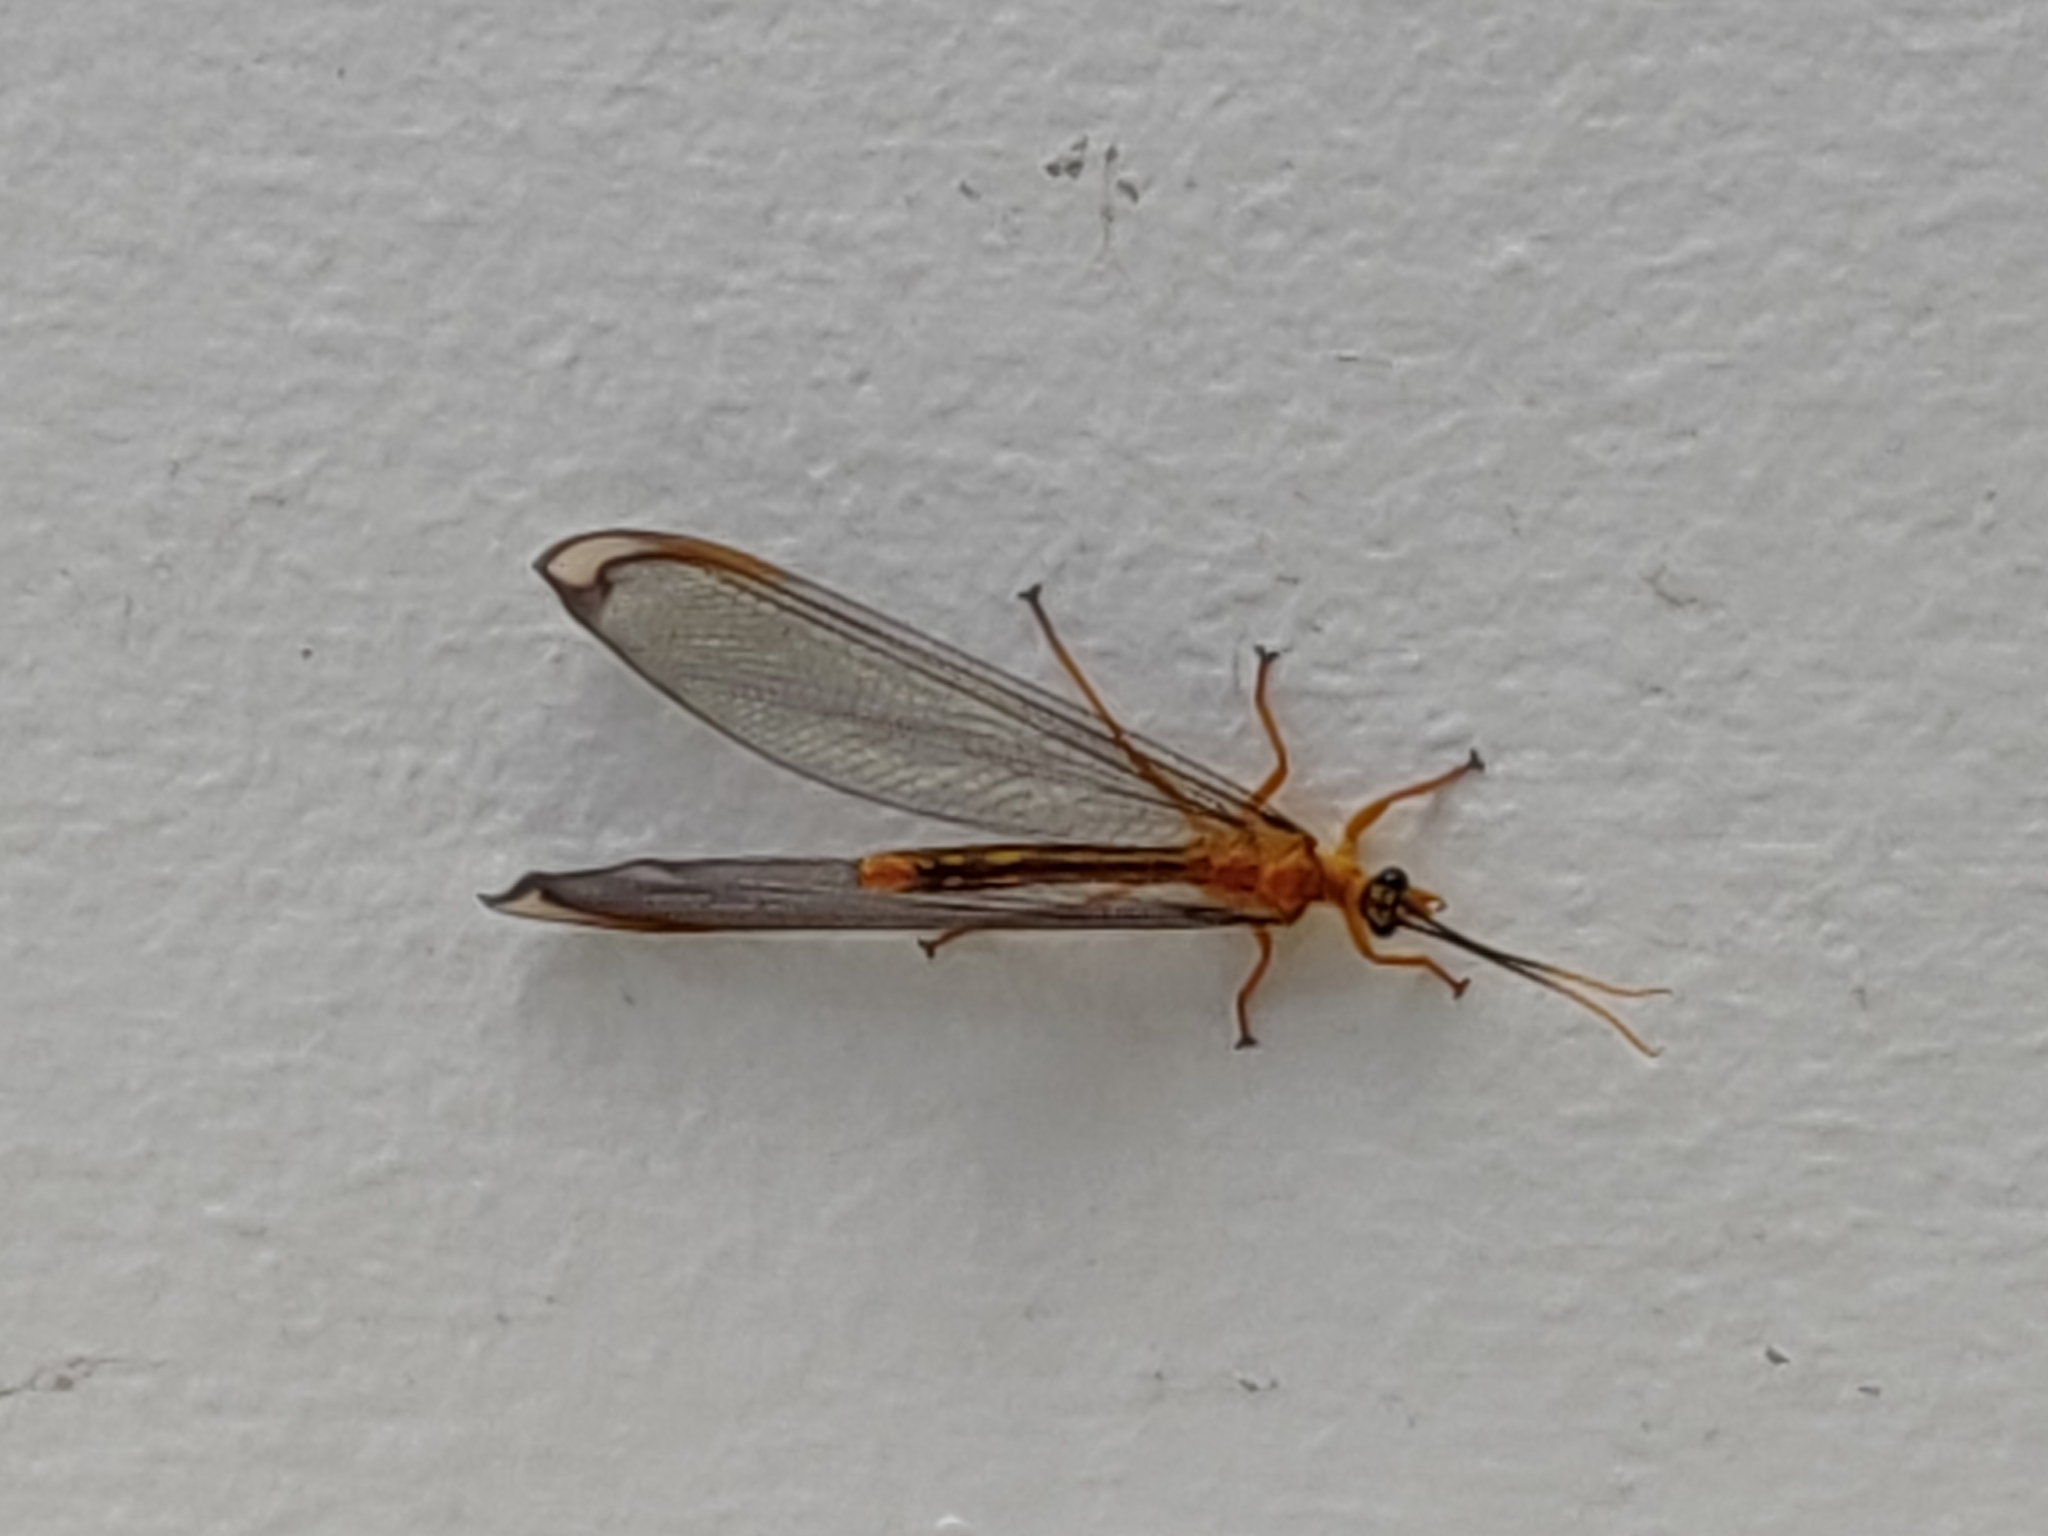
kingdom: Animalia
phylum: Arthropoda
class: Insecta
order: Neuroptera
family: Nymphidae
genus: Nymphes
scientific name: Nymphes myrmeleonoides
